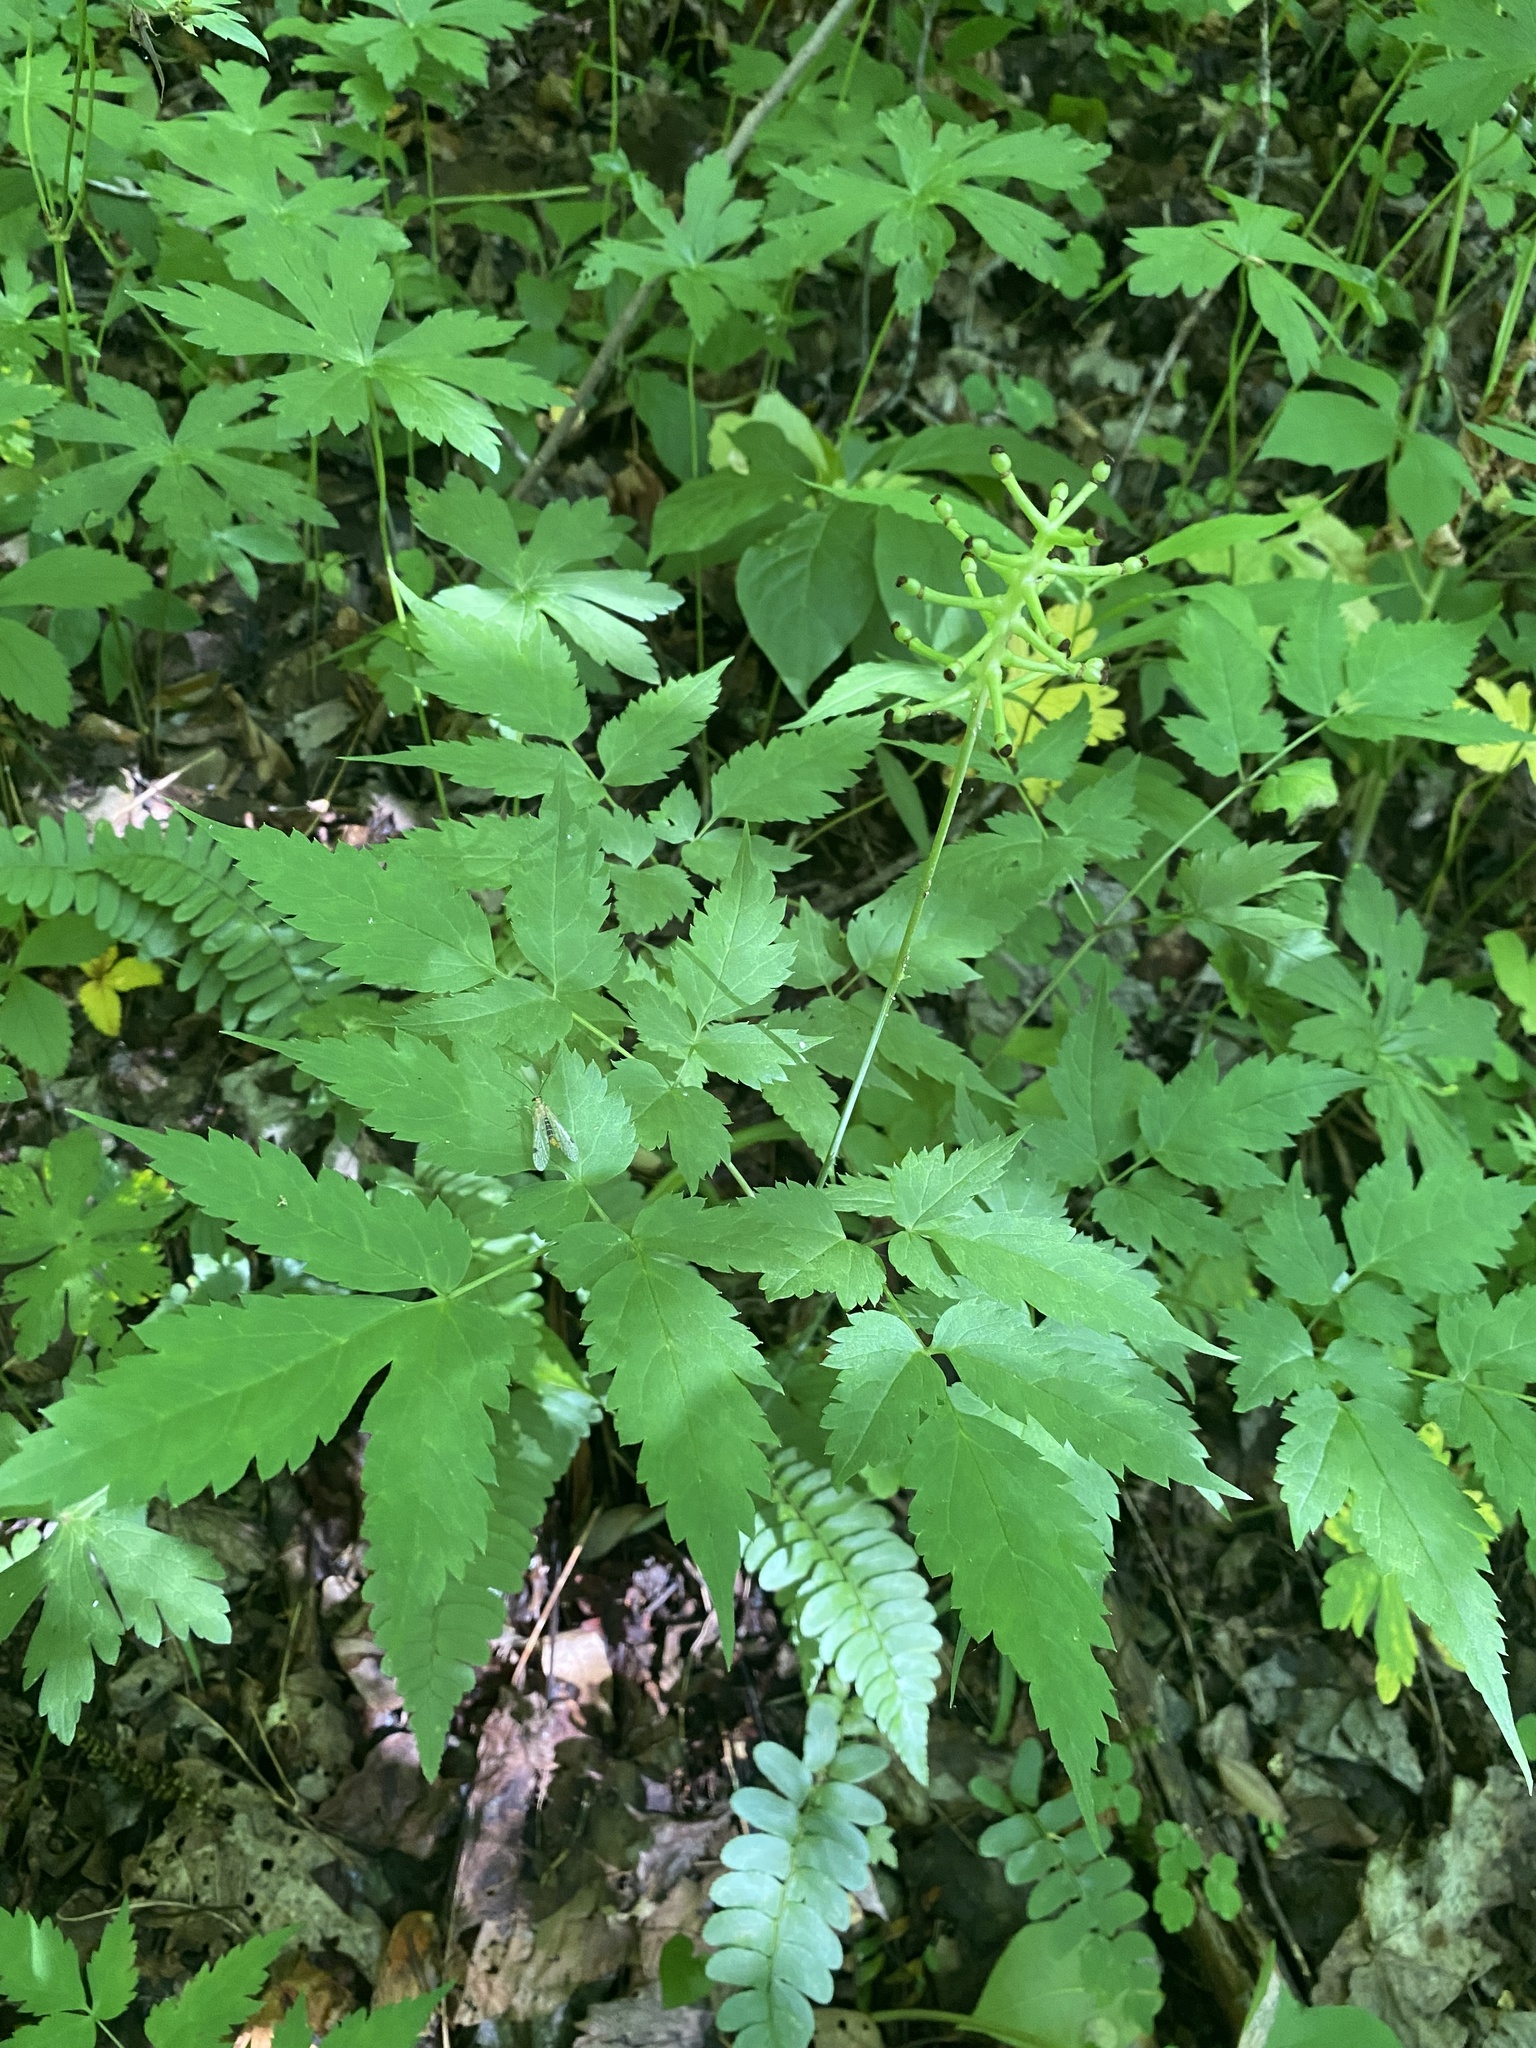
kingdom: Plantae
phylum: Tracheophyta
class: Magnoliopsida
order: Ranunculales
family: Ranunculaceae
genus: Actaea
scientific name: Actaea pachypoda
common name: Doll's-eyes
